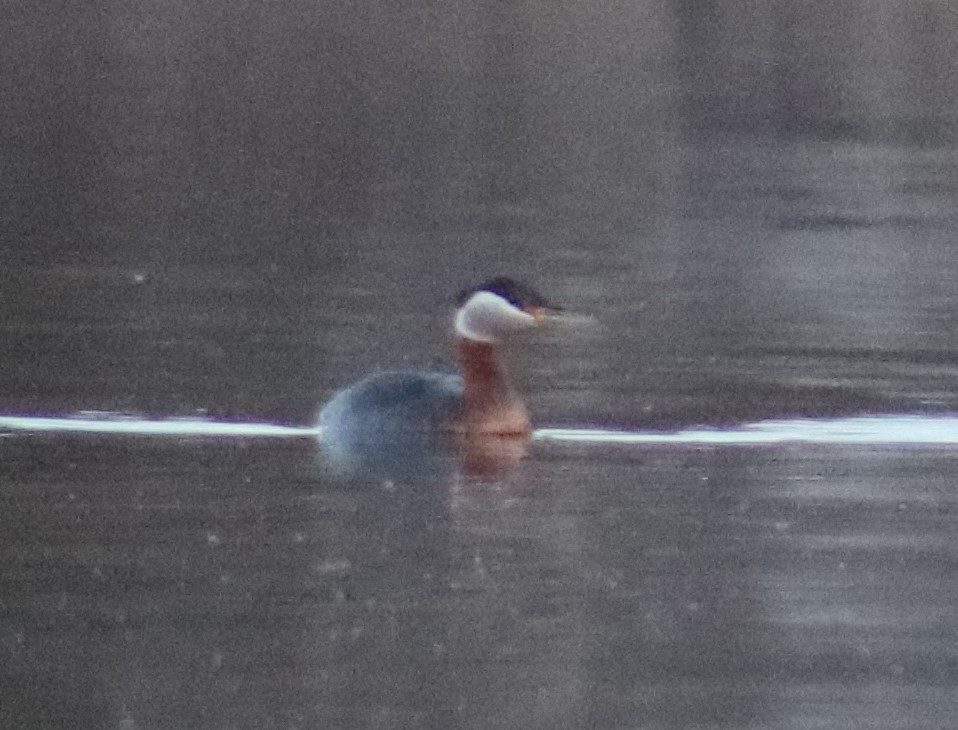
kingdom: Animalia
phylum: Chordata
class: Aves
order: Podicipediformes
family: Podicipedidae
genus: Podiceps
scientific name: Podiceps grisegena
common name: Red-necked grebe
